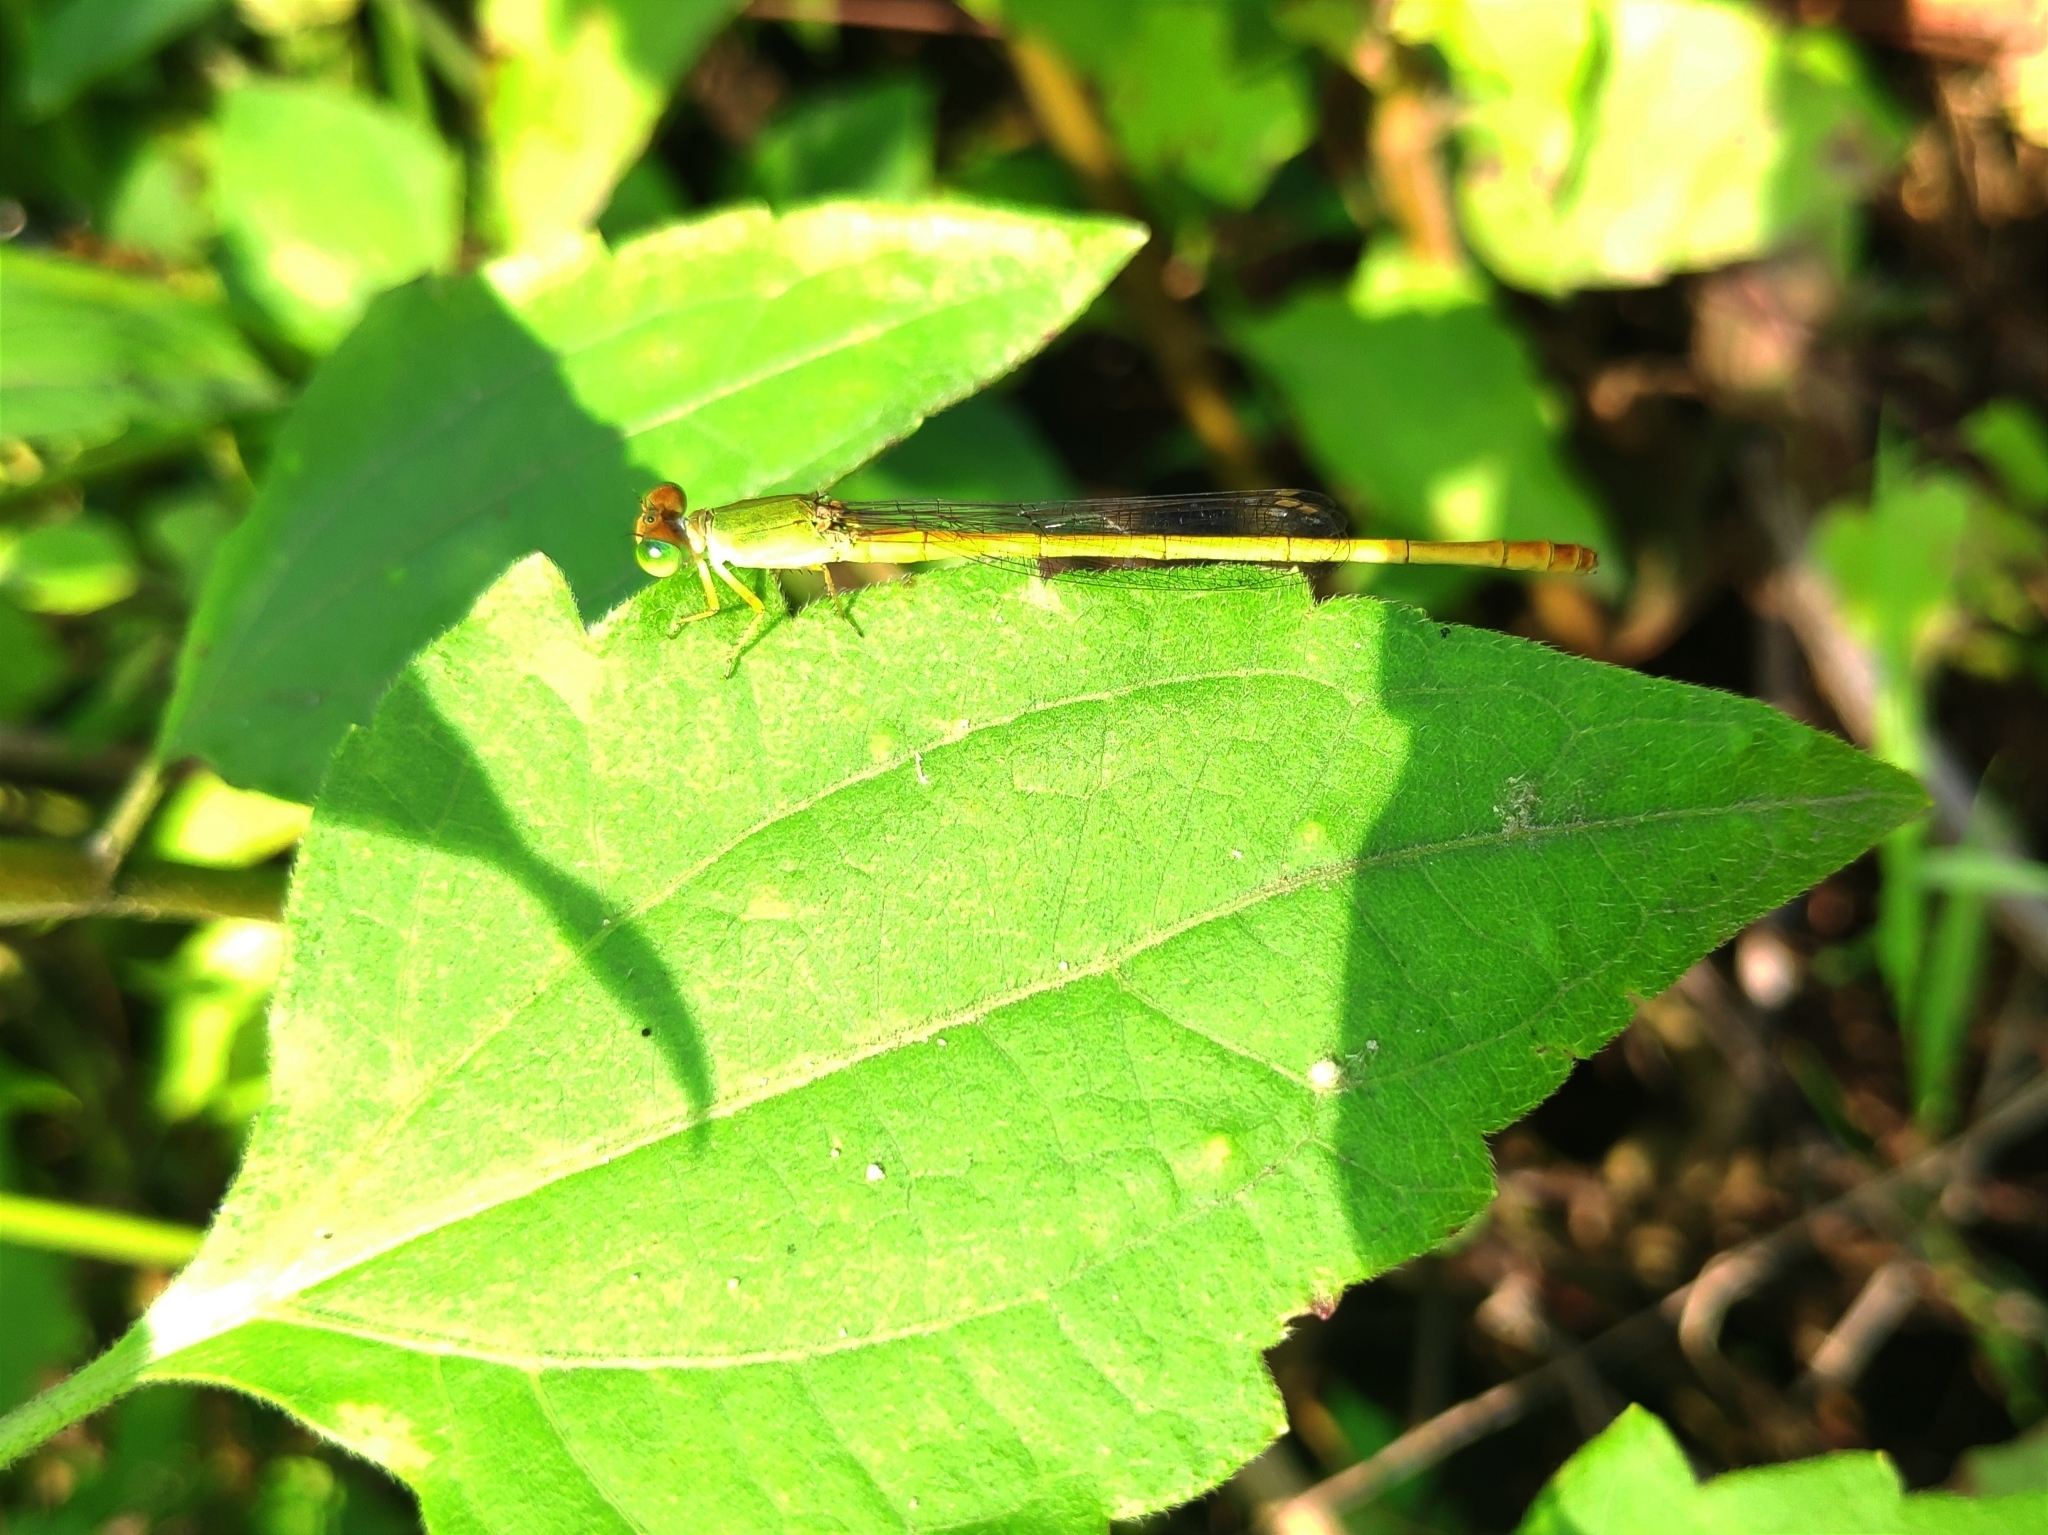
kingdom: Animalia
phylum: Arthropoda
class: Insecta
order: Odonata
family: Coenagrionidae
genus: Ceriagrion
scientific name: Ceriagrion coromandelianum
